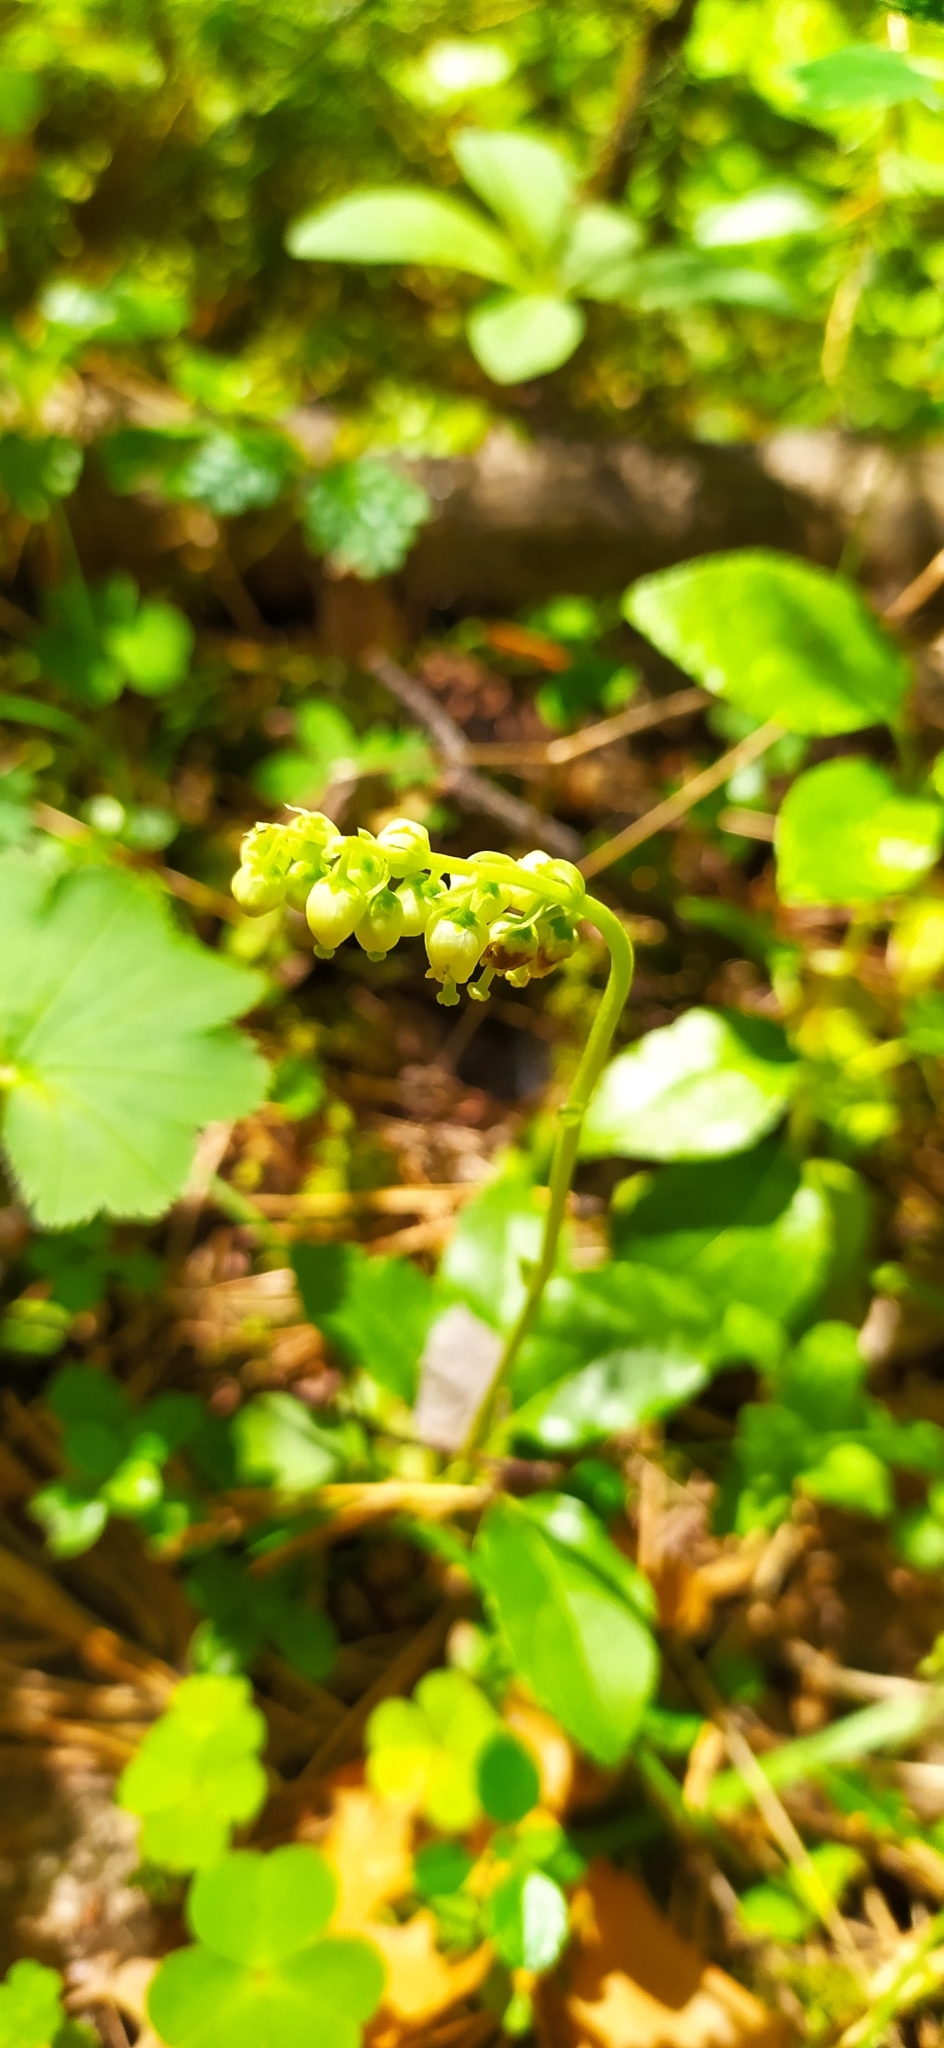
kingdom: Plantae
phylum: Tracheophyta
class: Magnoliopsida
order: Ericales
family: Ericaceae
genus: Orthilia
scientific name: Orthilia secunda
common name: One-sided orthilia
